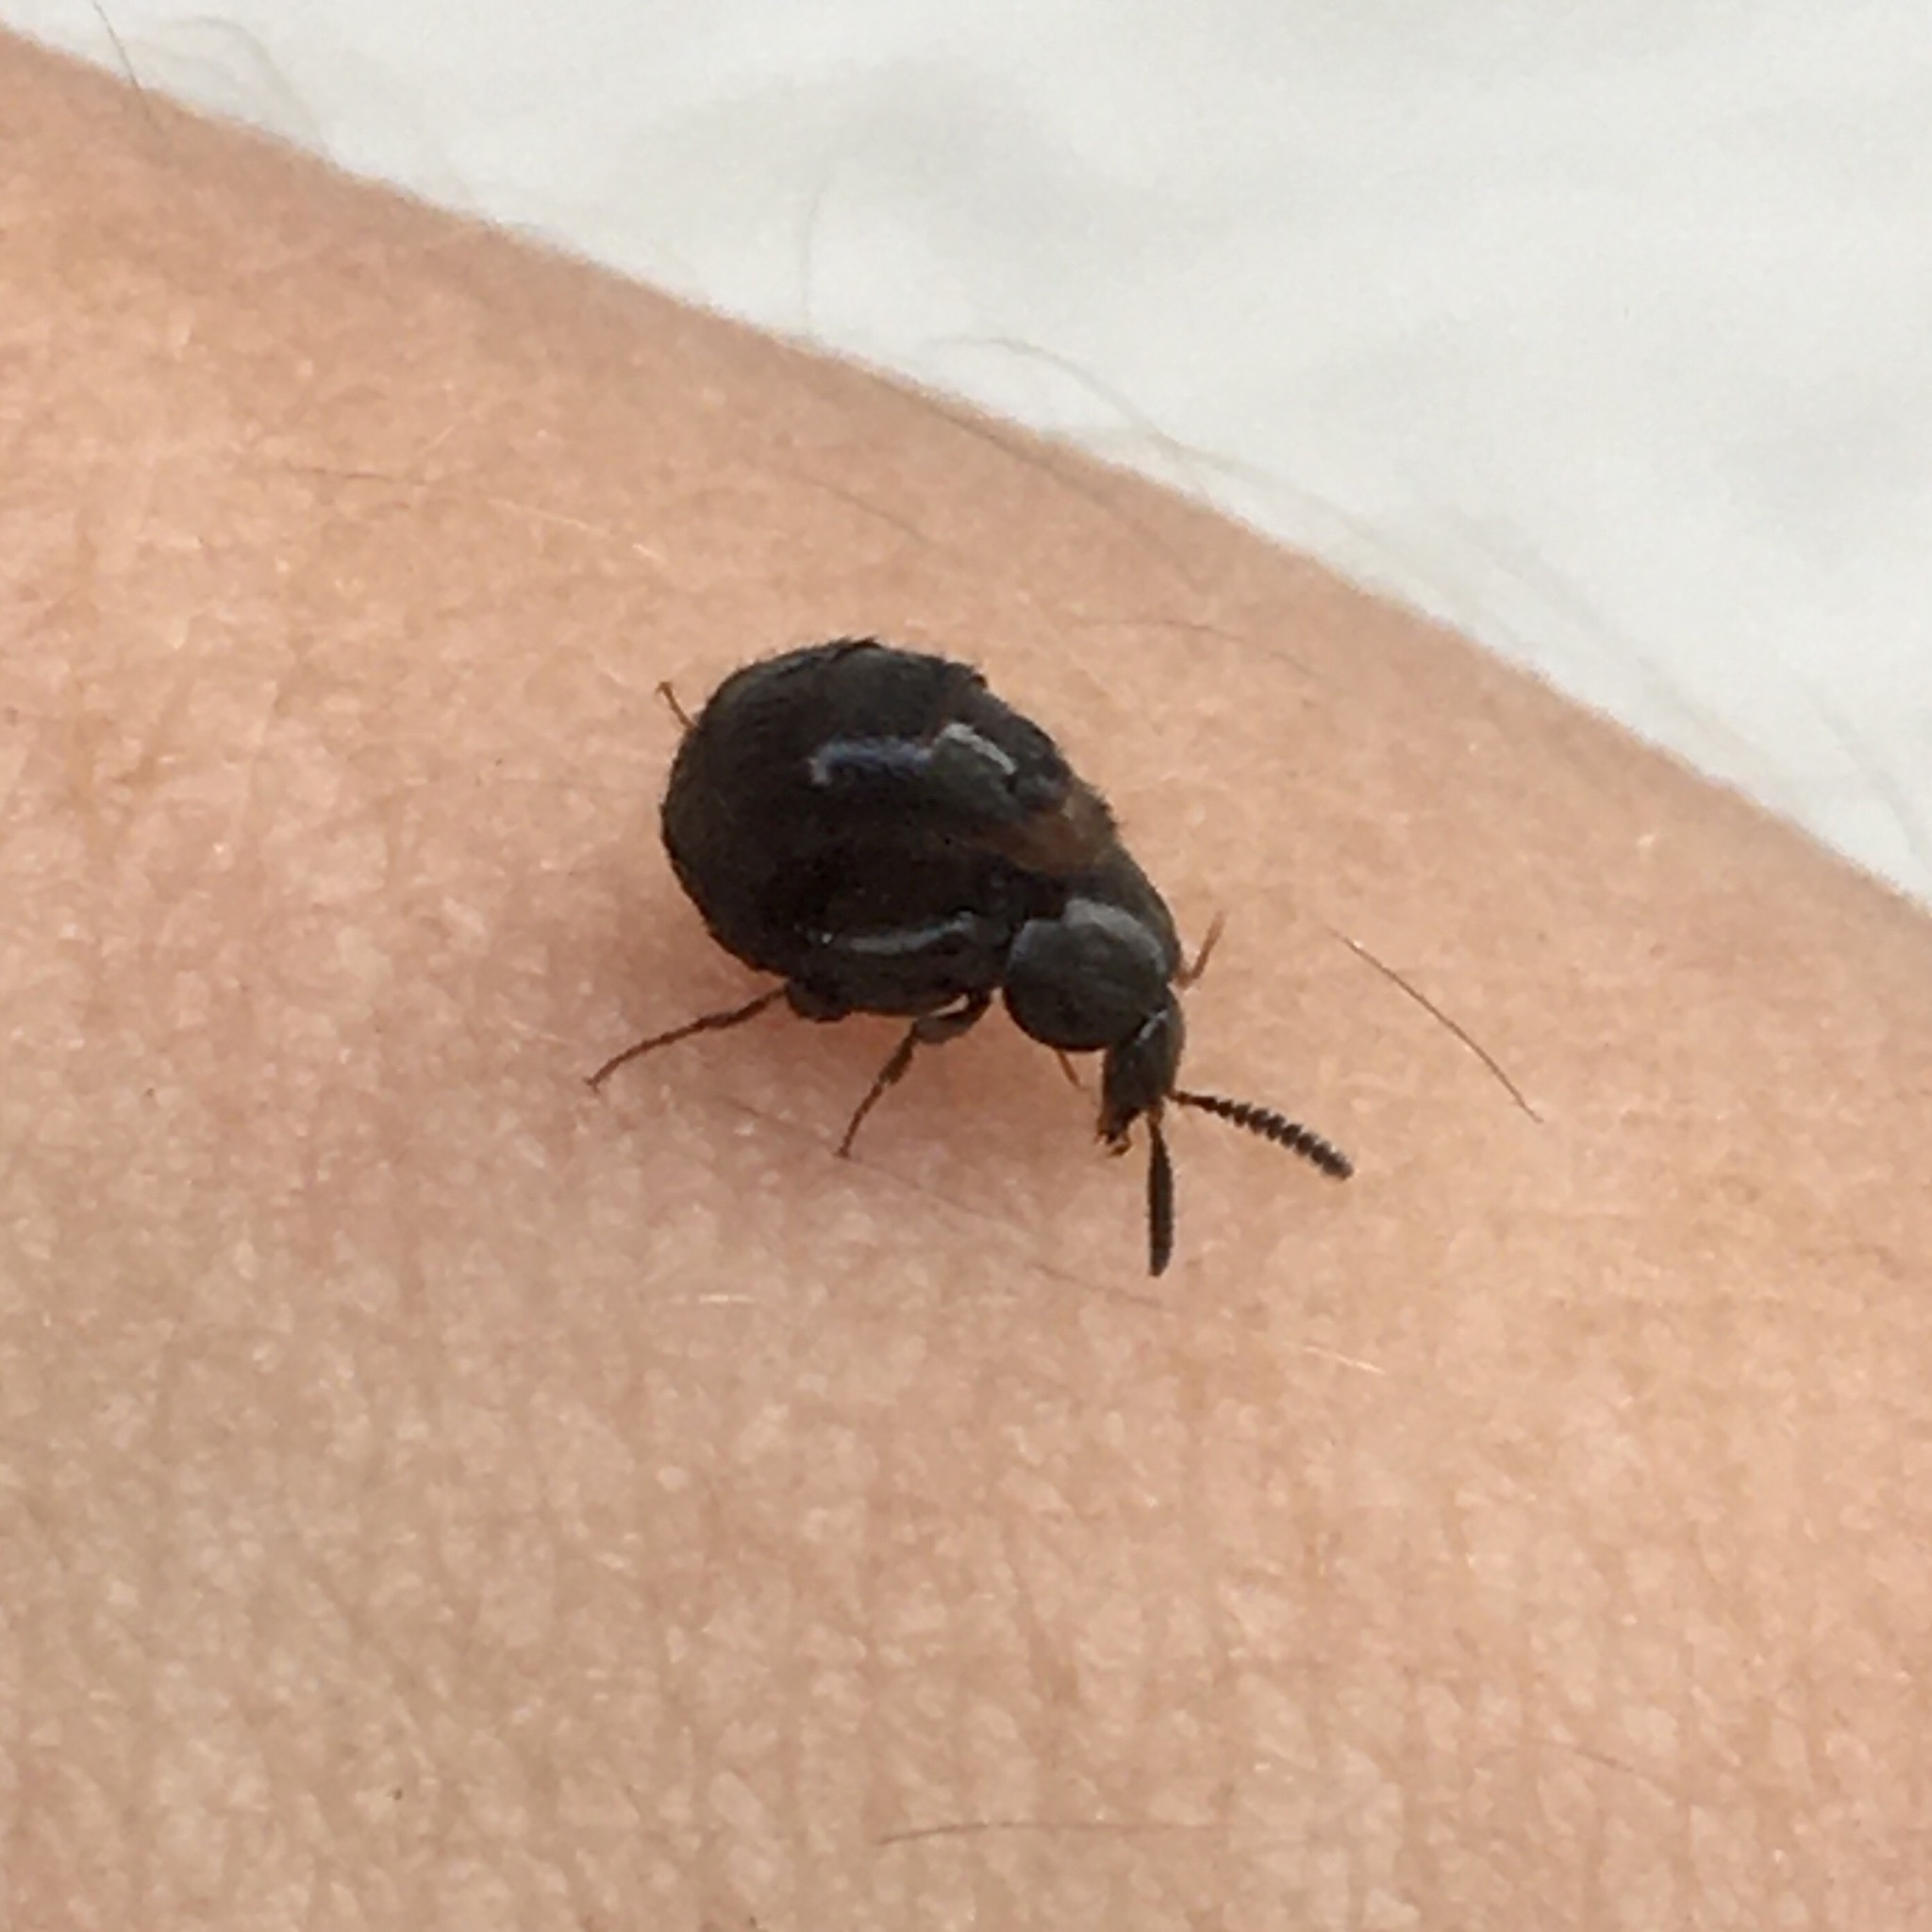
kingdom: Animalia
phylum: Arthropoda
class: Insecta
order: Coleoptera
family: Staphylinidae
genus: Aleochara
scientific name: Aleochara
